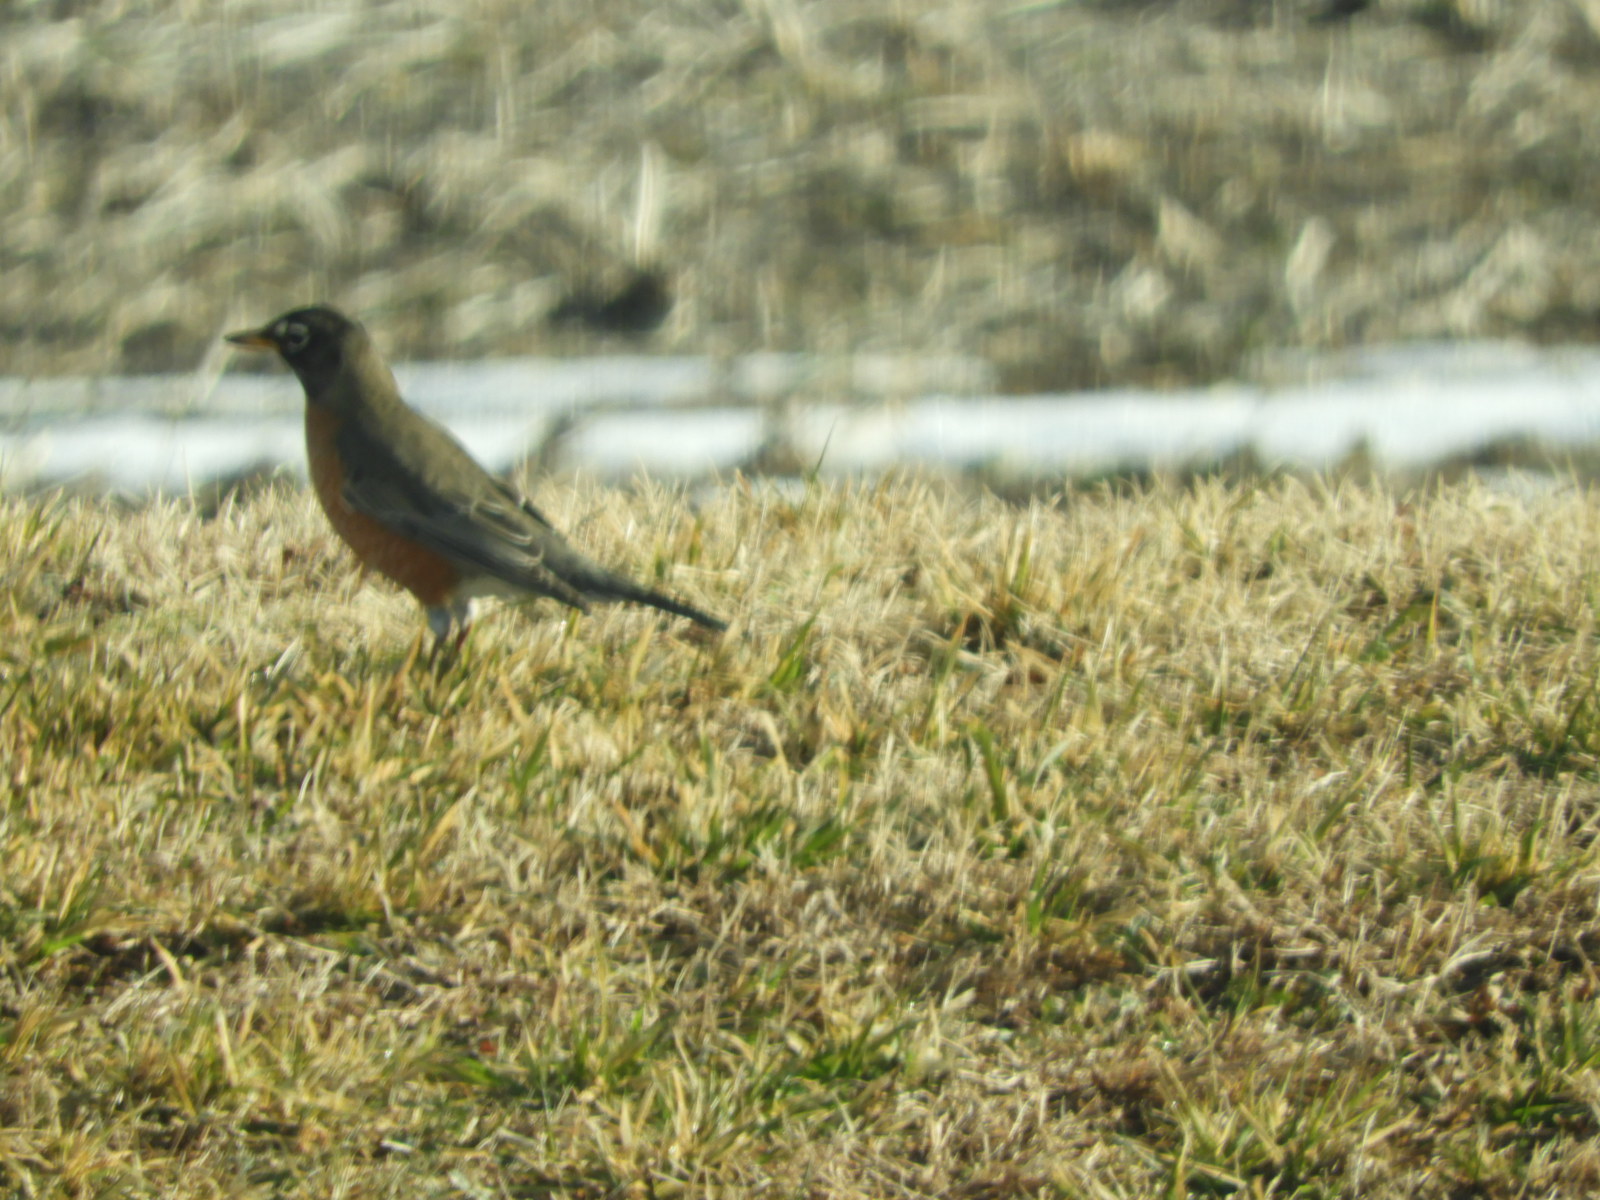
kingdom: Animalia
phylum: Chordata
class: Aves
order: Passeriformes
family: Turdidae
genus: Turdus
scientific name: Turdus migratorius
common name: American robin
